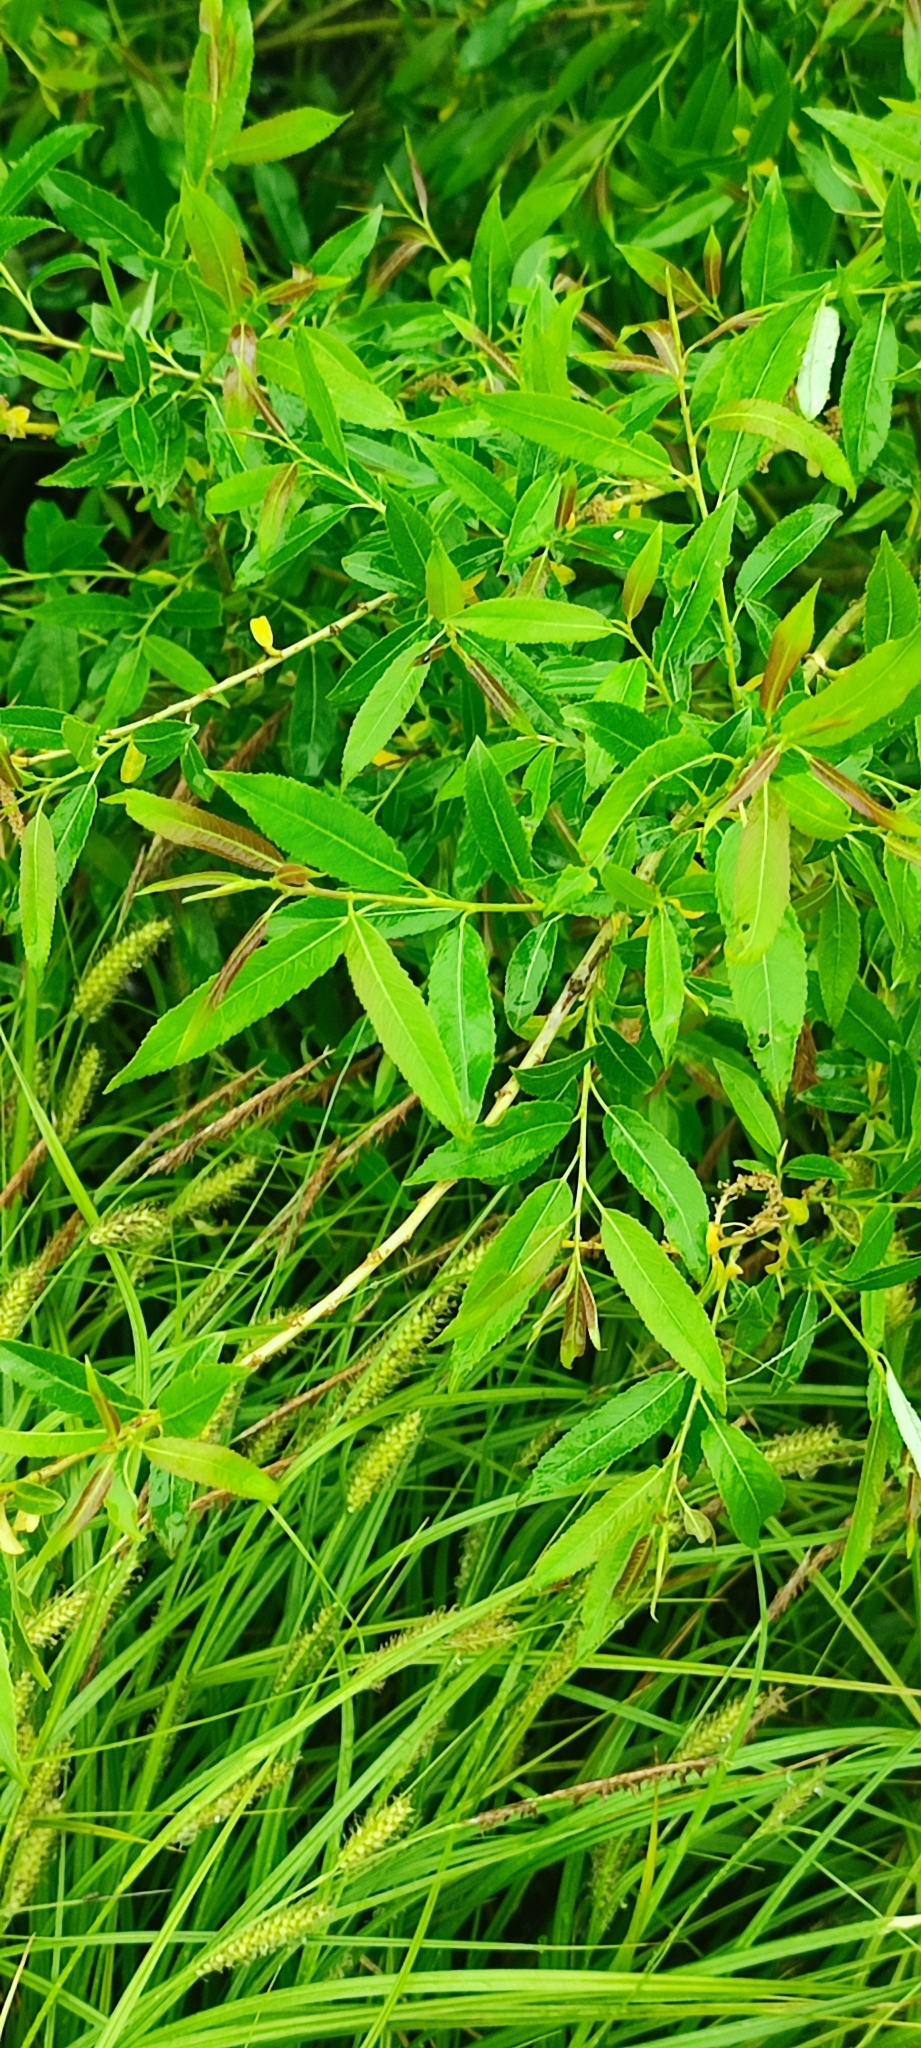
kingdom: Plantae
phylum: Tracheophyta
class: Magnoliopsida
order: Malpighiales
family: Salicaceae
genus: Salix
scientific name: Salix triandra
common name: Almond willow
